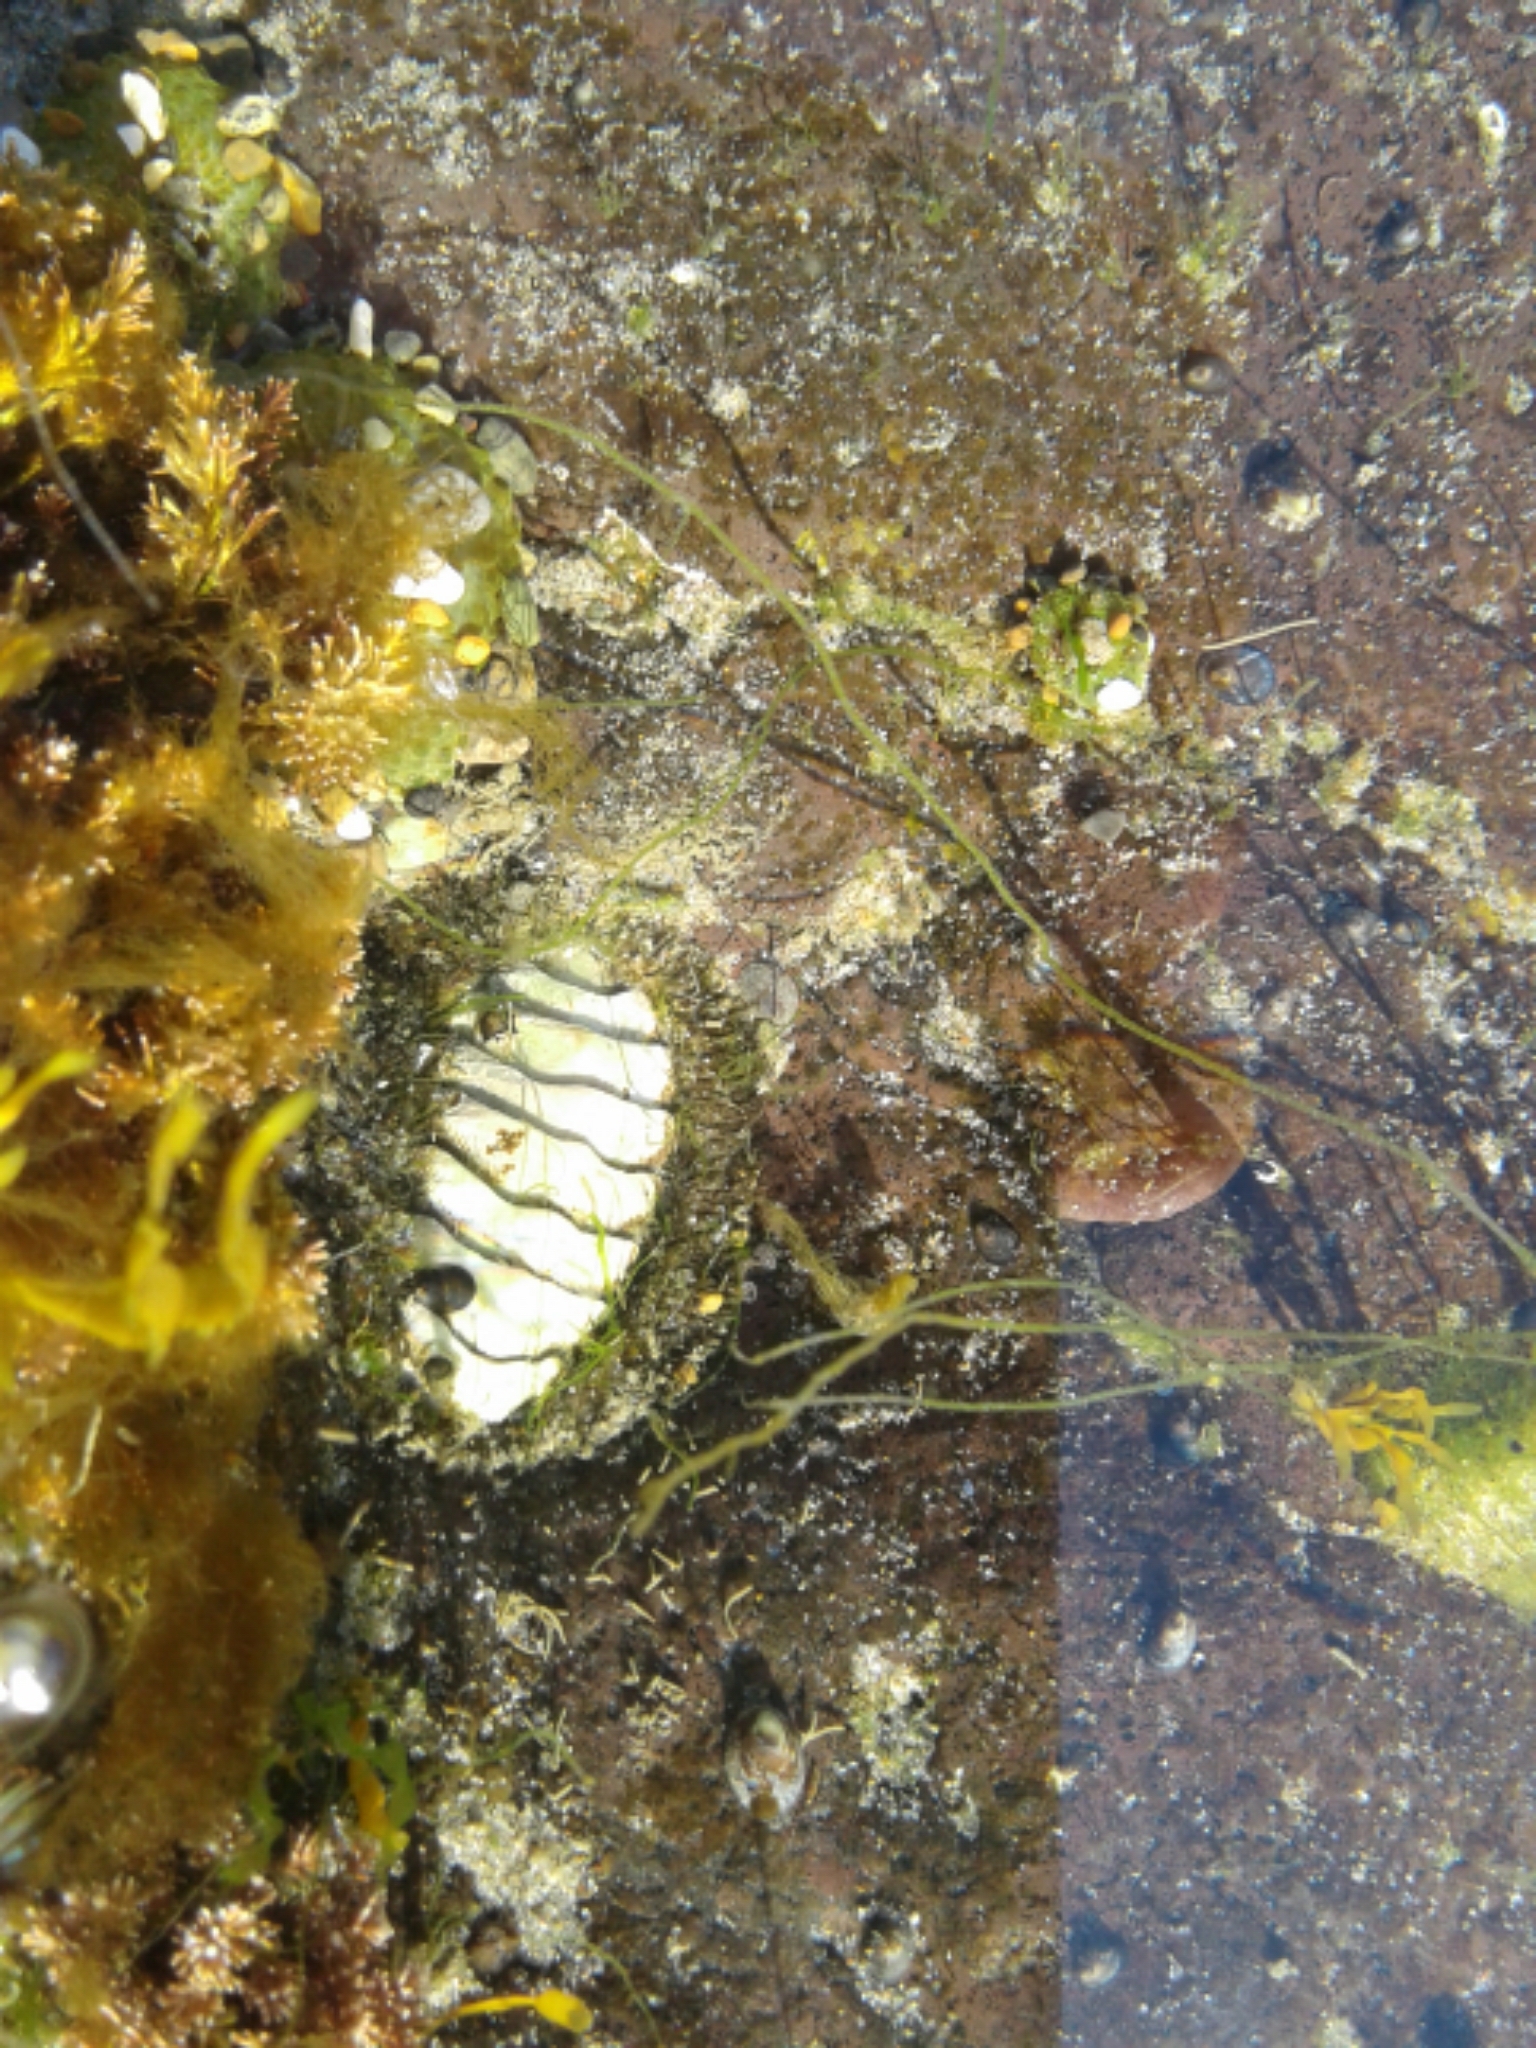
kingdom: Animalia
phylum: Mollusca
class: Polyplacophora
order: Chitonida
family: Mopaliidae
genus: Mopalia
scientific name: Mopalia muscosa
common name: Mossy chiton
